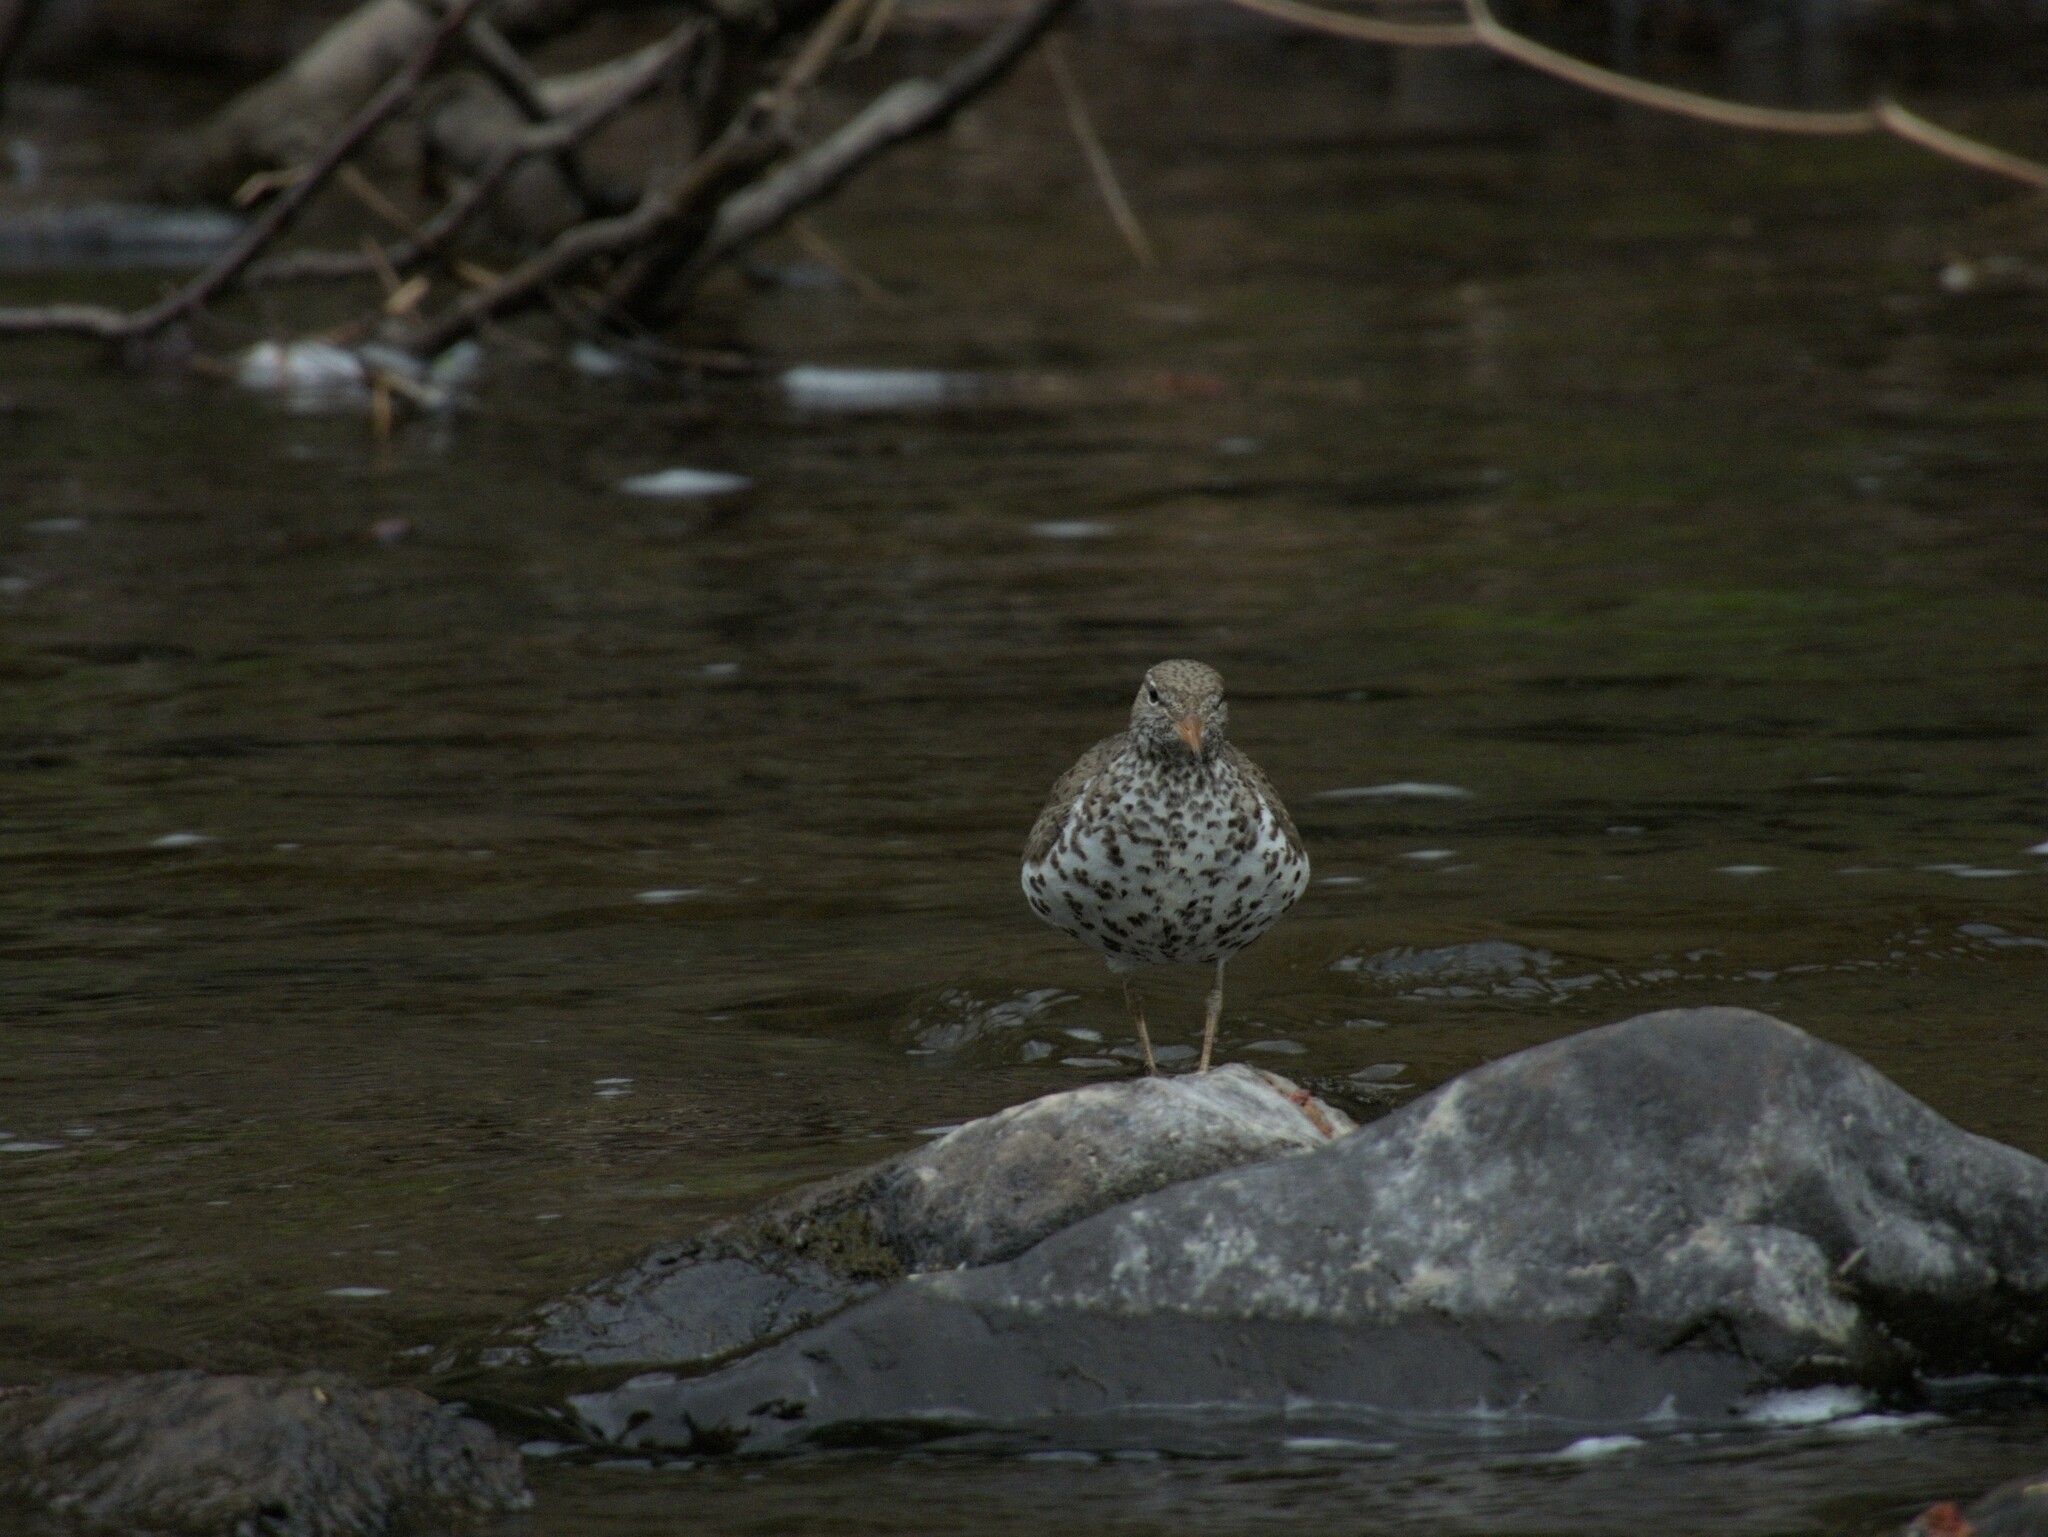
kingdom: Animalia
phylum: Chordata
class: Aves
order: Charadriiformes
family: Scolopacidae
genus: Actitis
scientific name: Actitis macularius
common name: Spotted sandpiper
